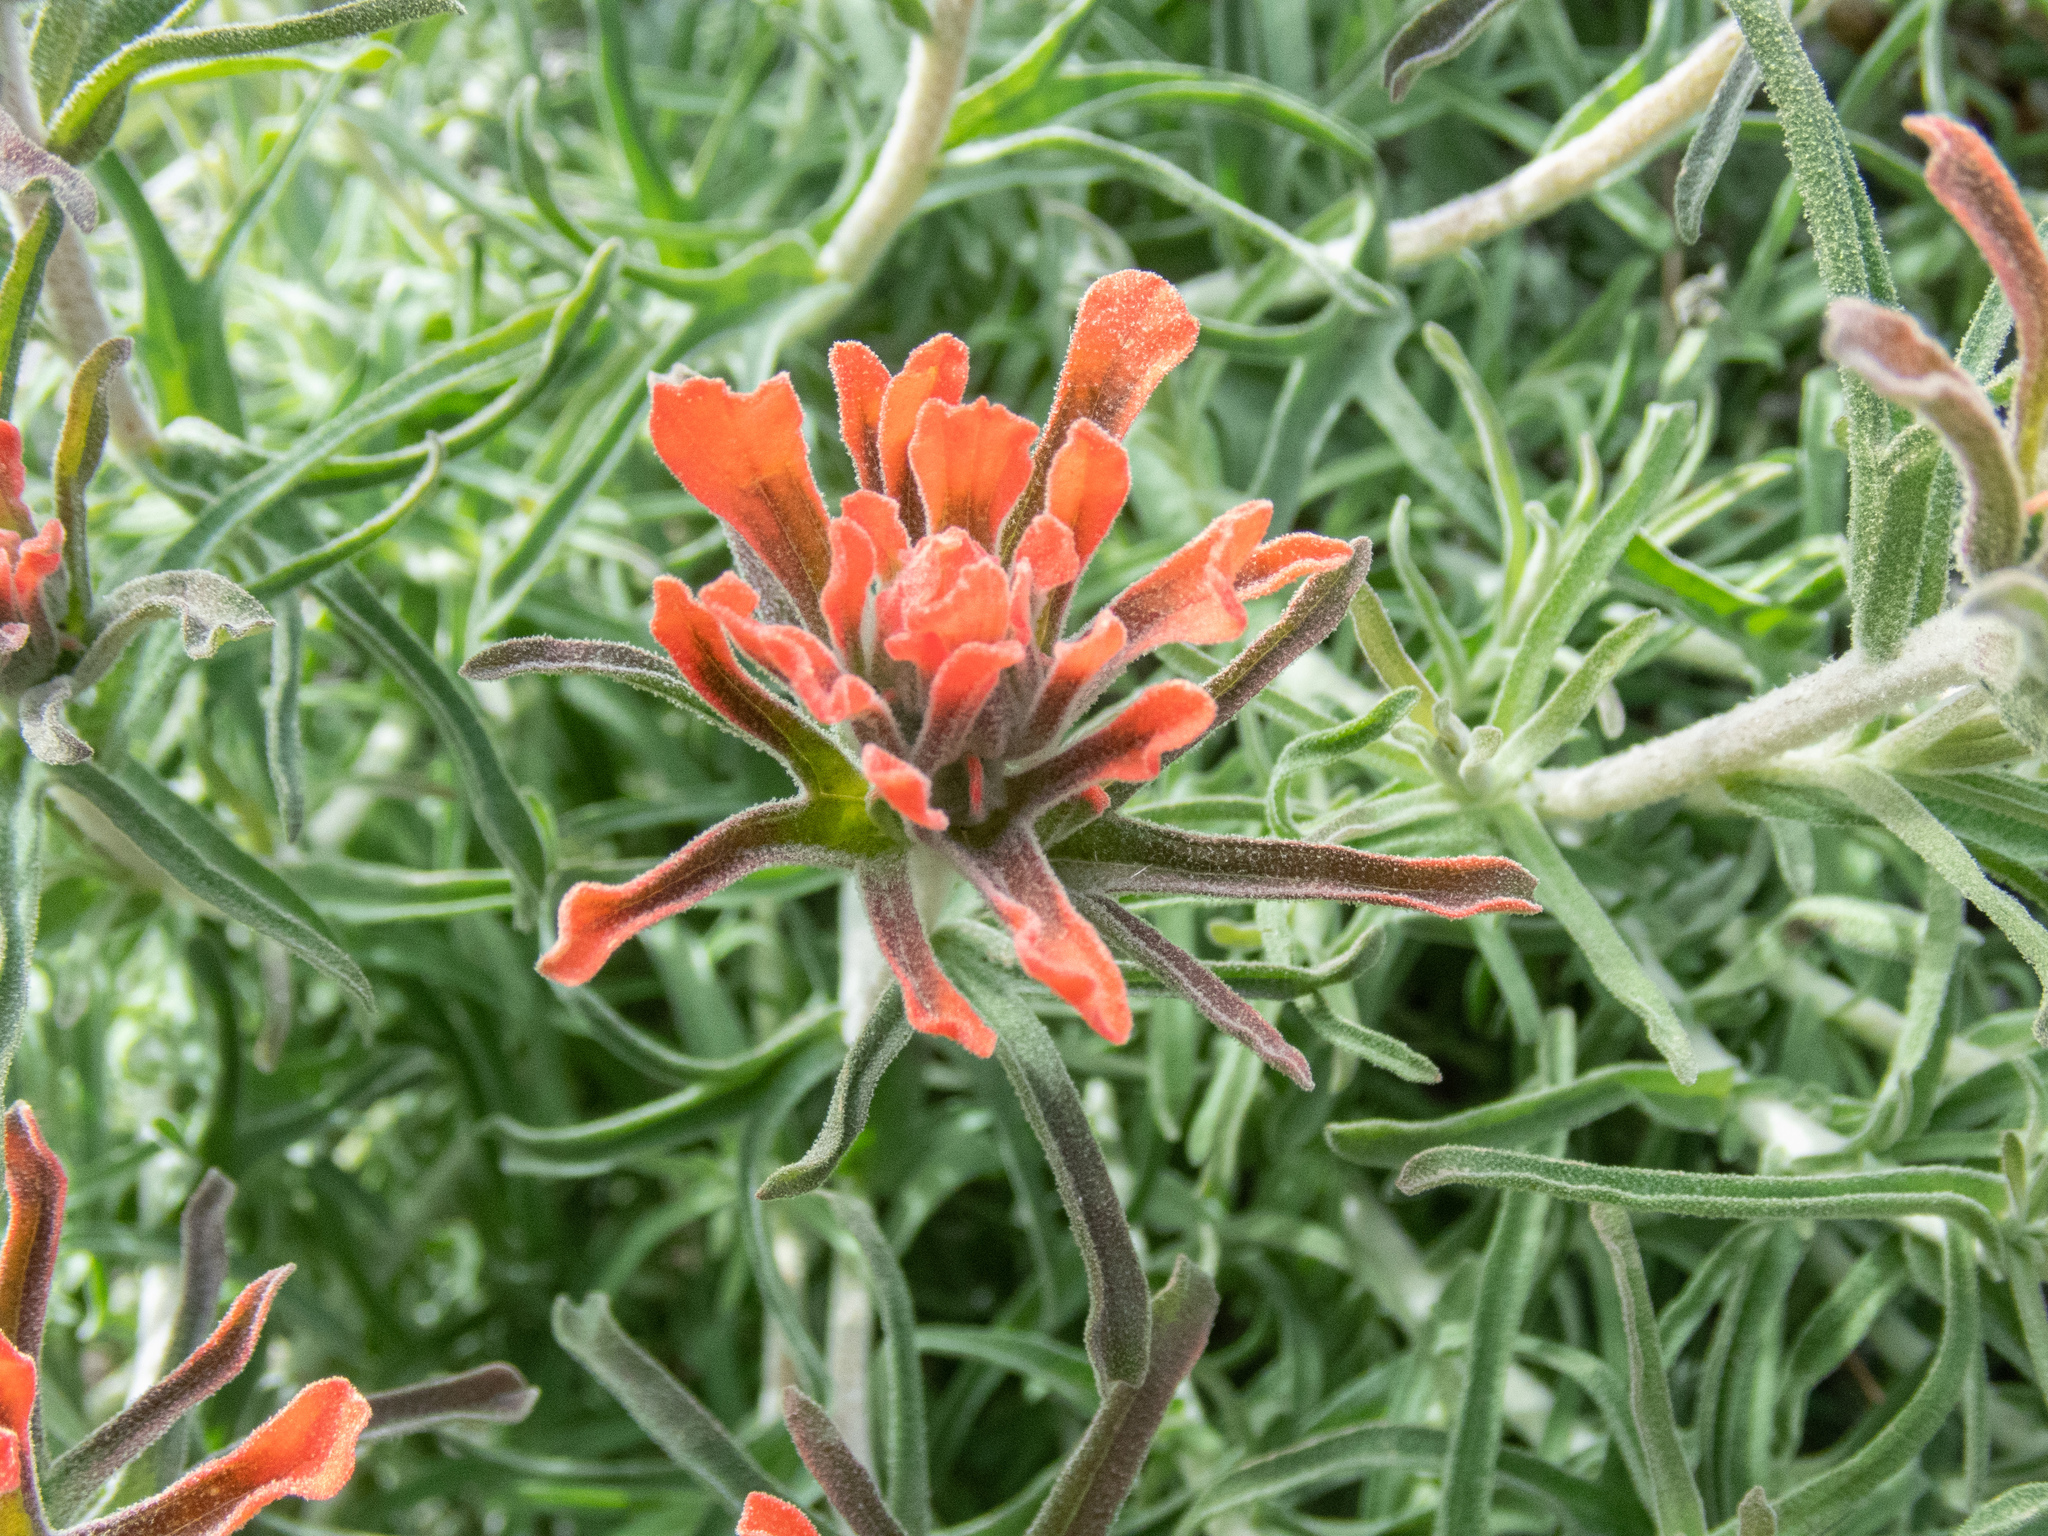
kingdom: Plantae
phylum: Tracheophyta
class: Magnoliopsida
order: Lamiales
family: Orobanchaceae
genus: Castilleja
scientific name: Castilleja foliolosa
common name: Woolly indian paintbrush
